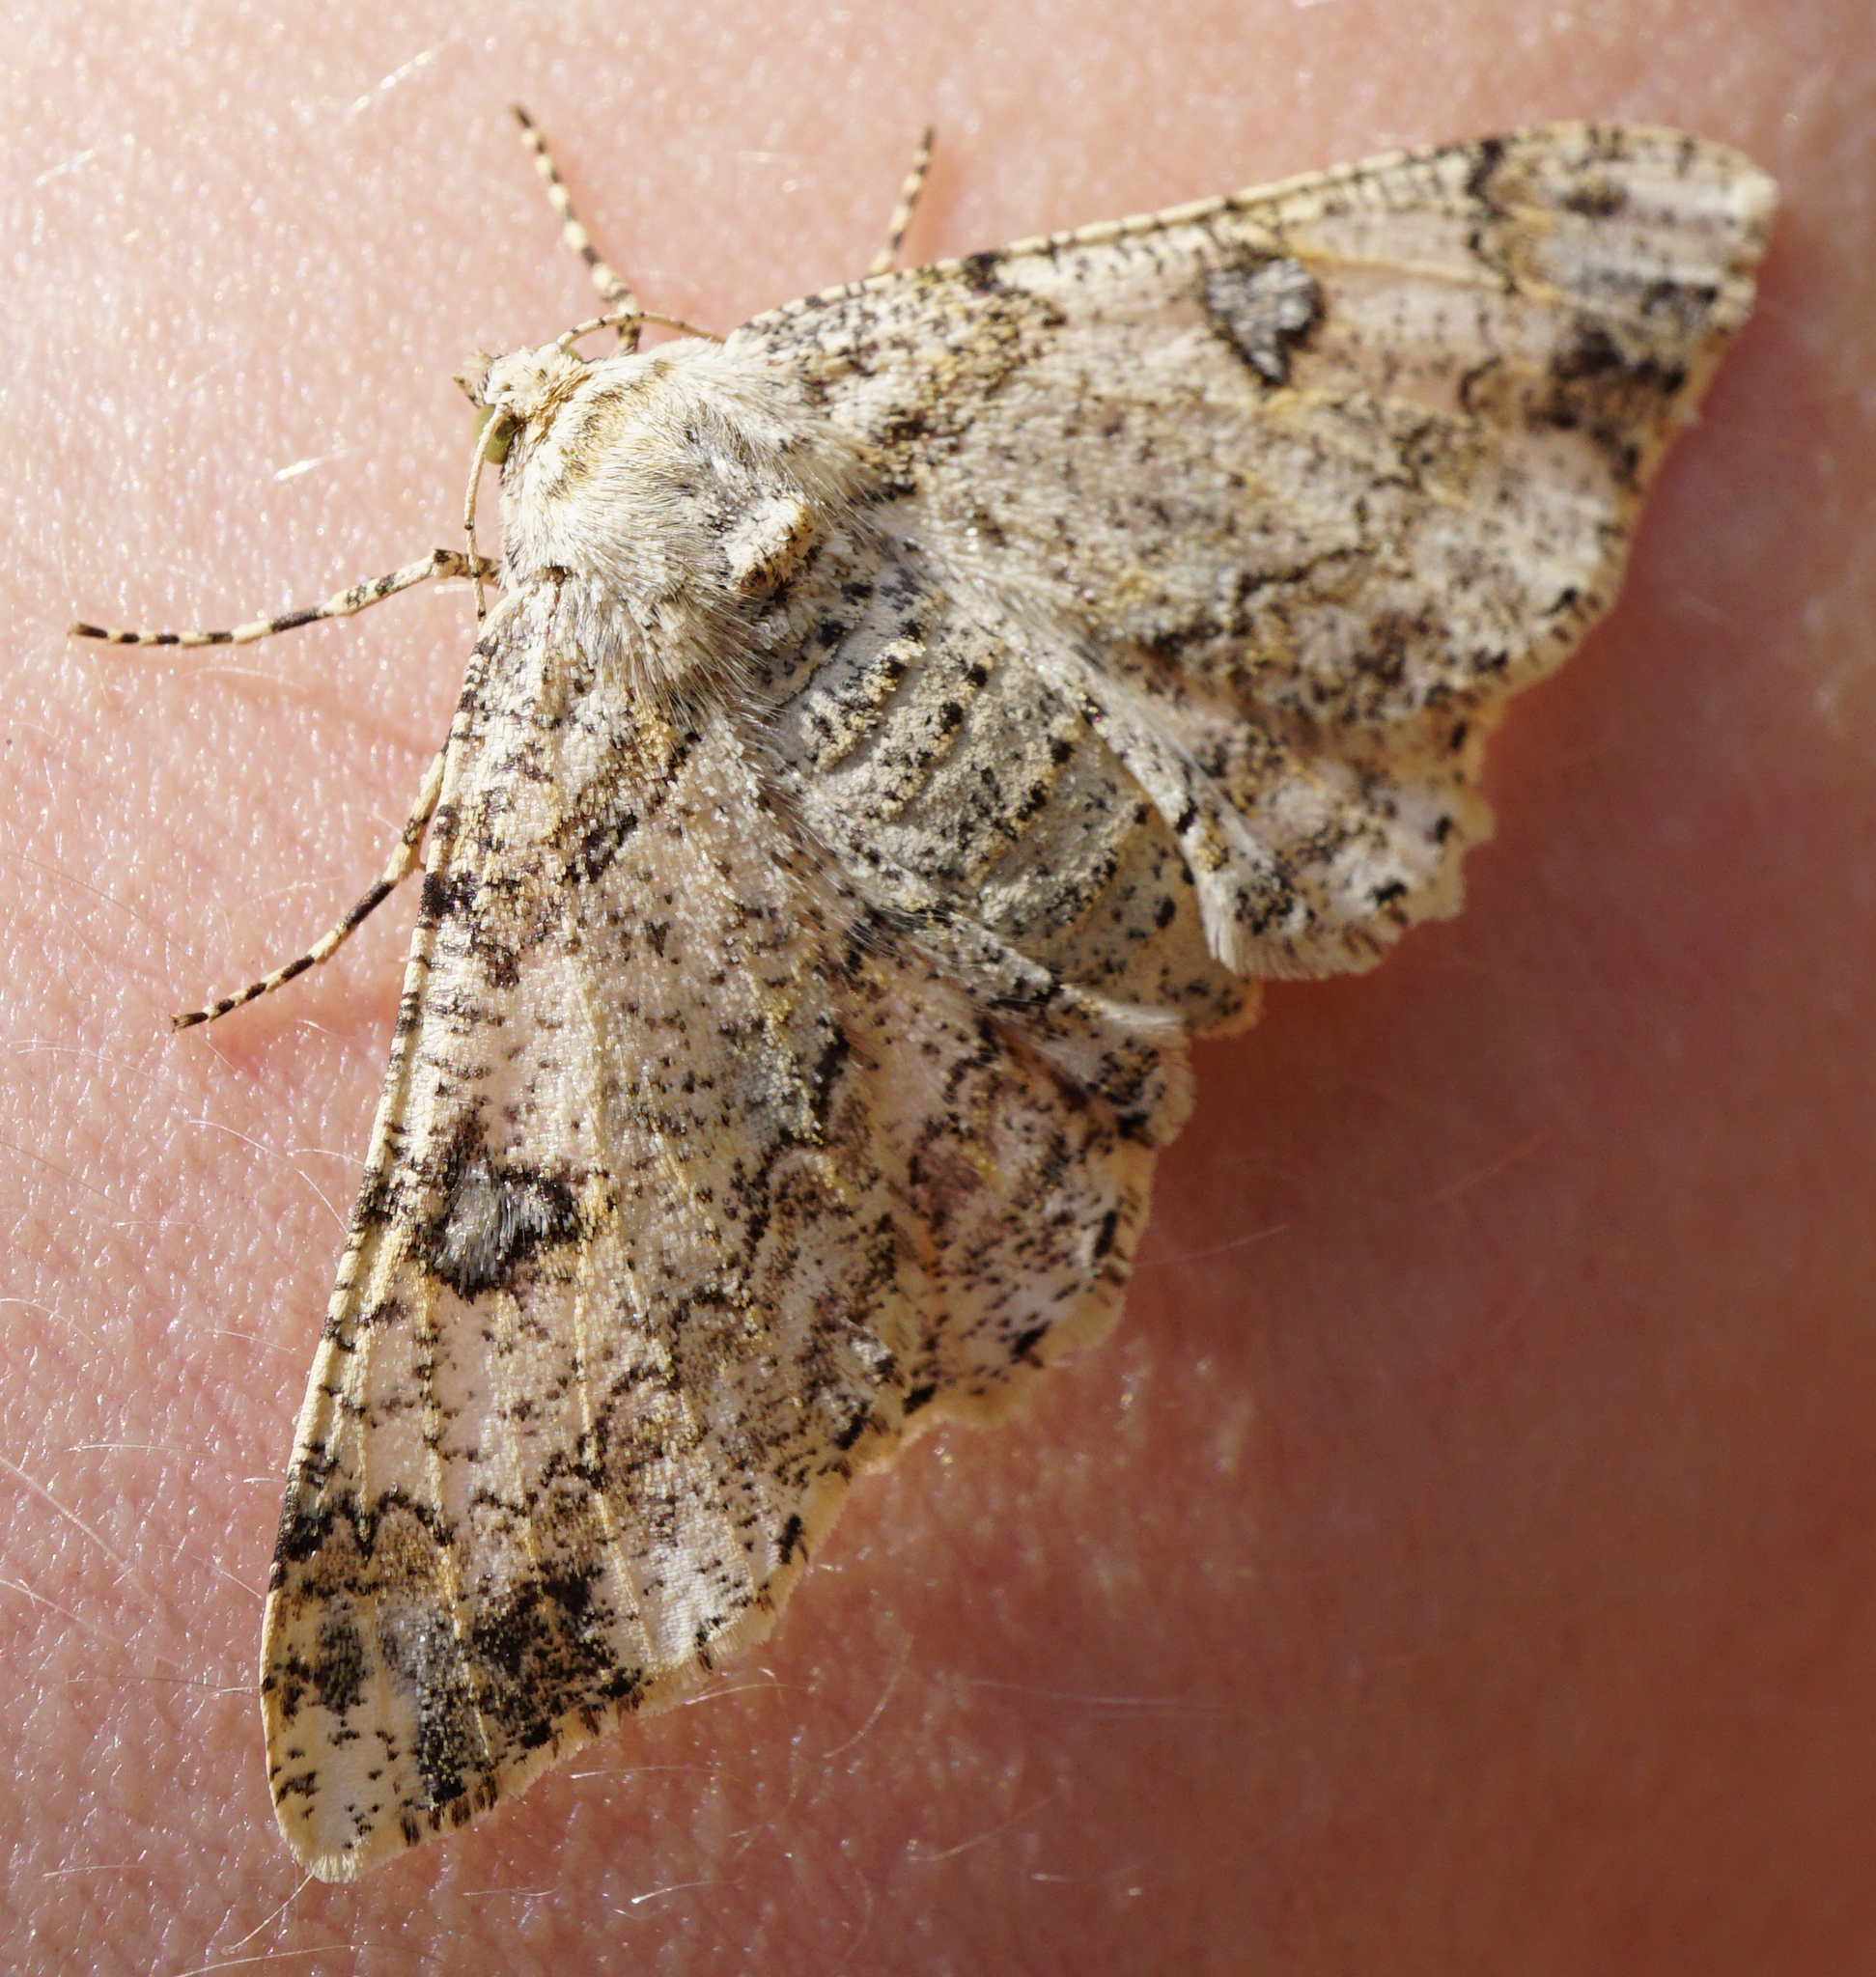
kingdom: Animalia
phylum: Arthropoda
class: Insecta
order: Lepidoptera
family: Geometridae
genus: Ascotis
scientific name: Ascotis selenaria
